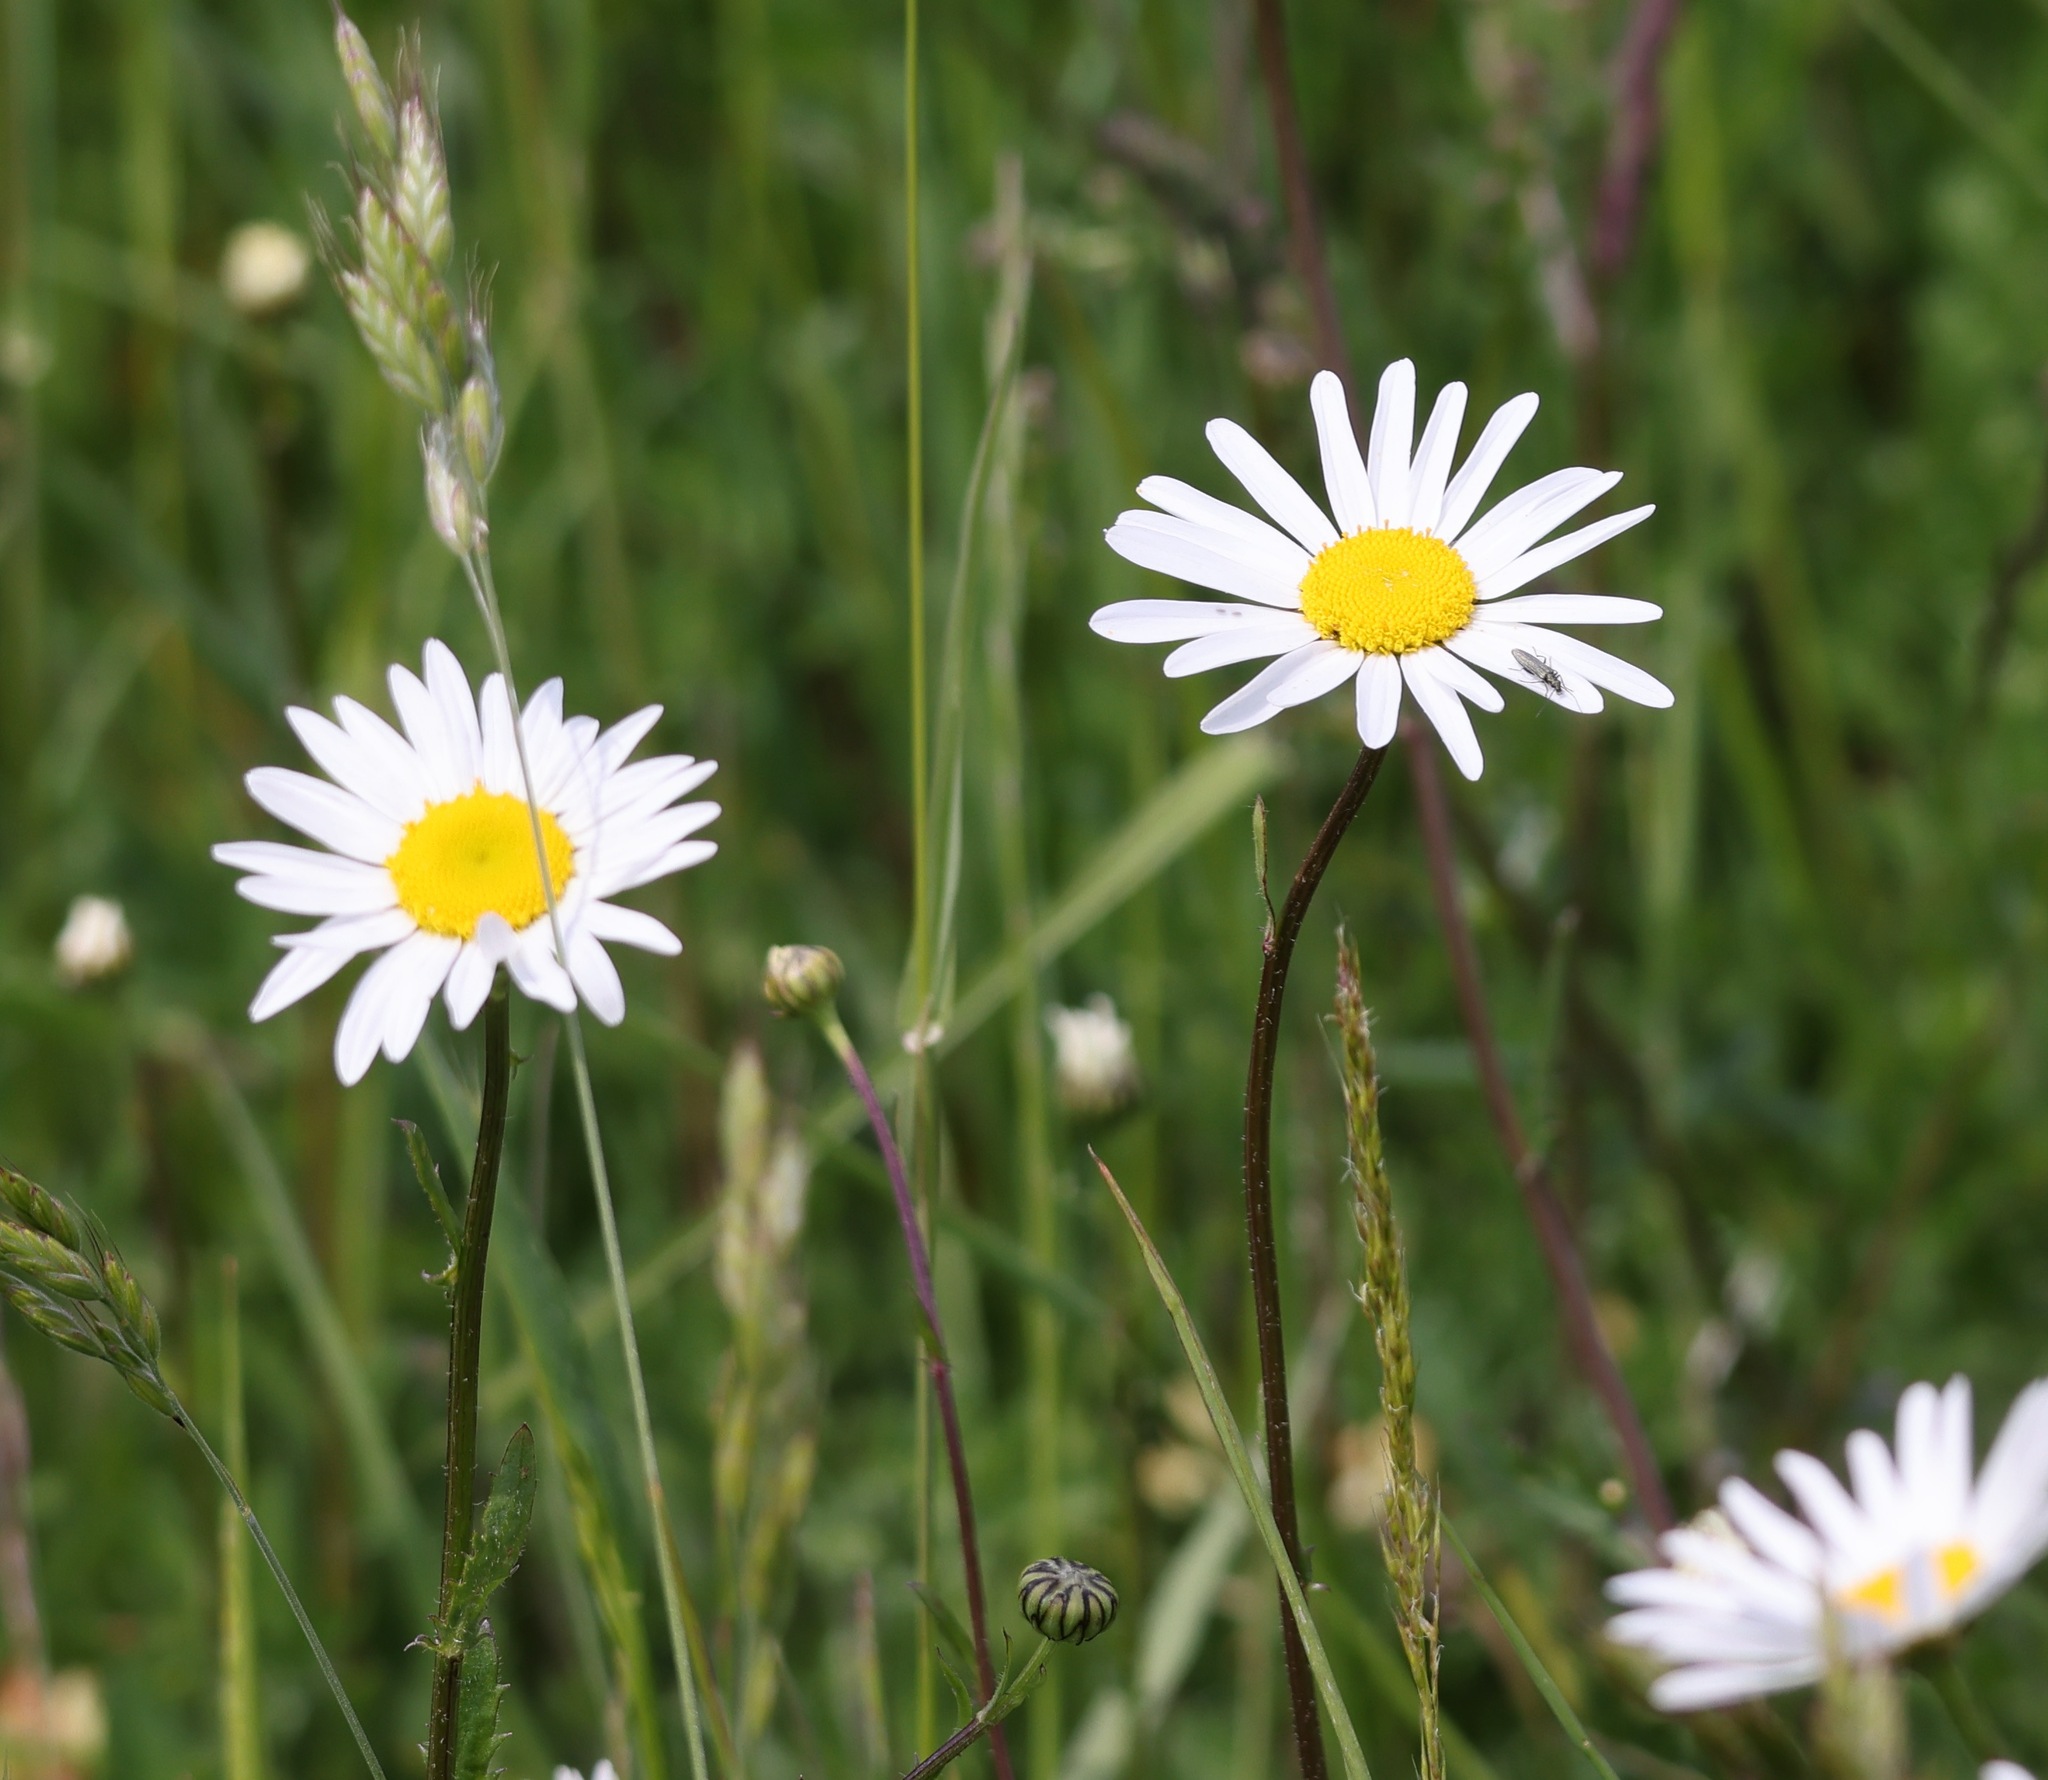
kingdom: Plantae
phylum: Tracheophyta
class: Magnoliopsida
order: Asterales
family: Asteraceae
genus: Leucanthemum
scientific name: Leucanthemum vulgare
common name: Oxeye daisy
